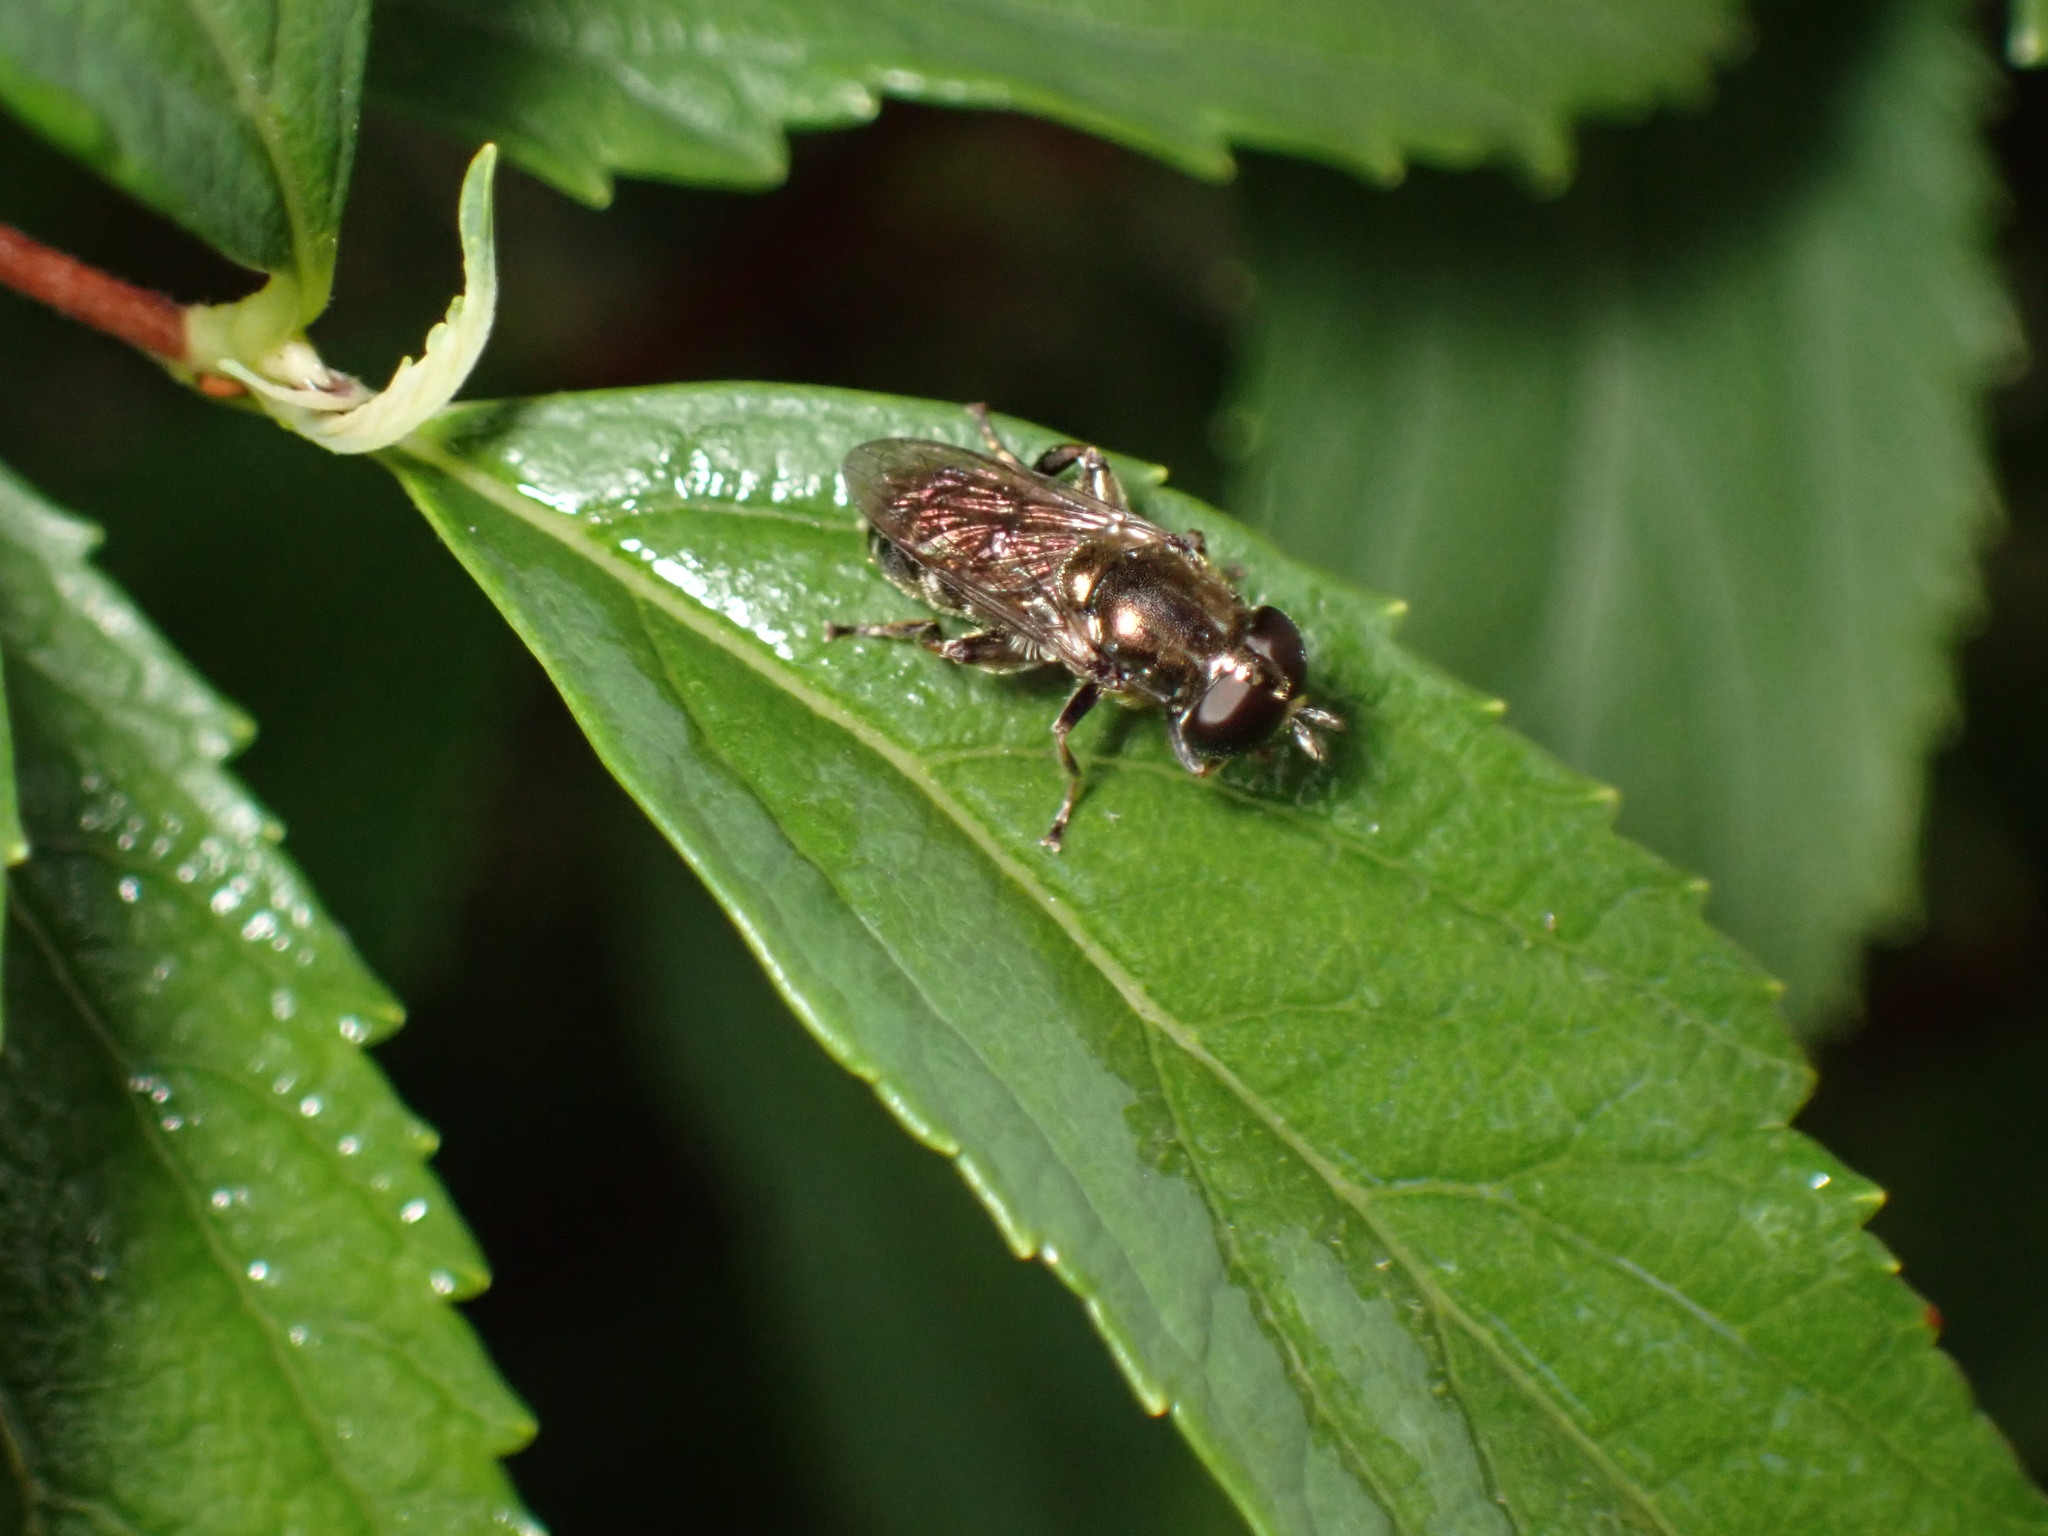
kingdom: Animalia
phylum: Arthropoda
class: Insecta
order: Diptera
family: Syrphidae
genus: Eumerus
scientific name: Eumerus
